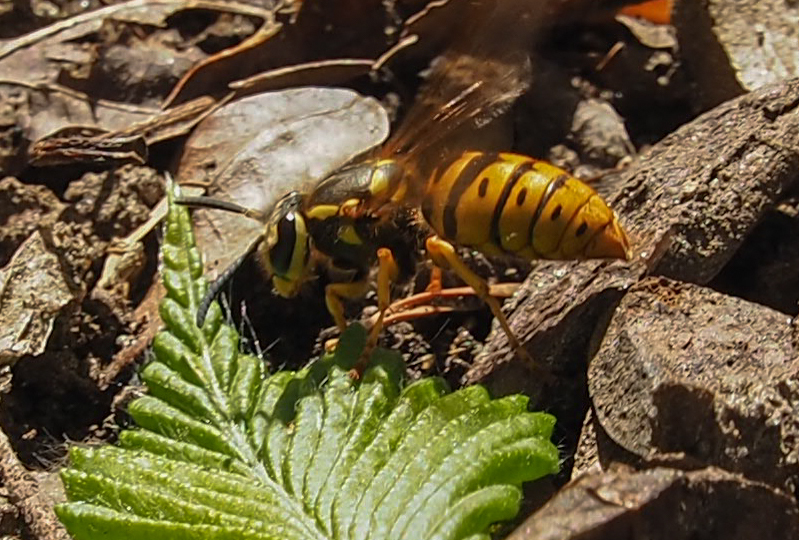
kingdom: Animalia
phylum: Arthropoda
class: Insecta
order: Hymenoptera
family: Vespidae
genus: Vespula
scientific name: Vespula maculifrons
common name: Eastern yellowjacket
